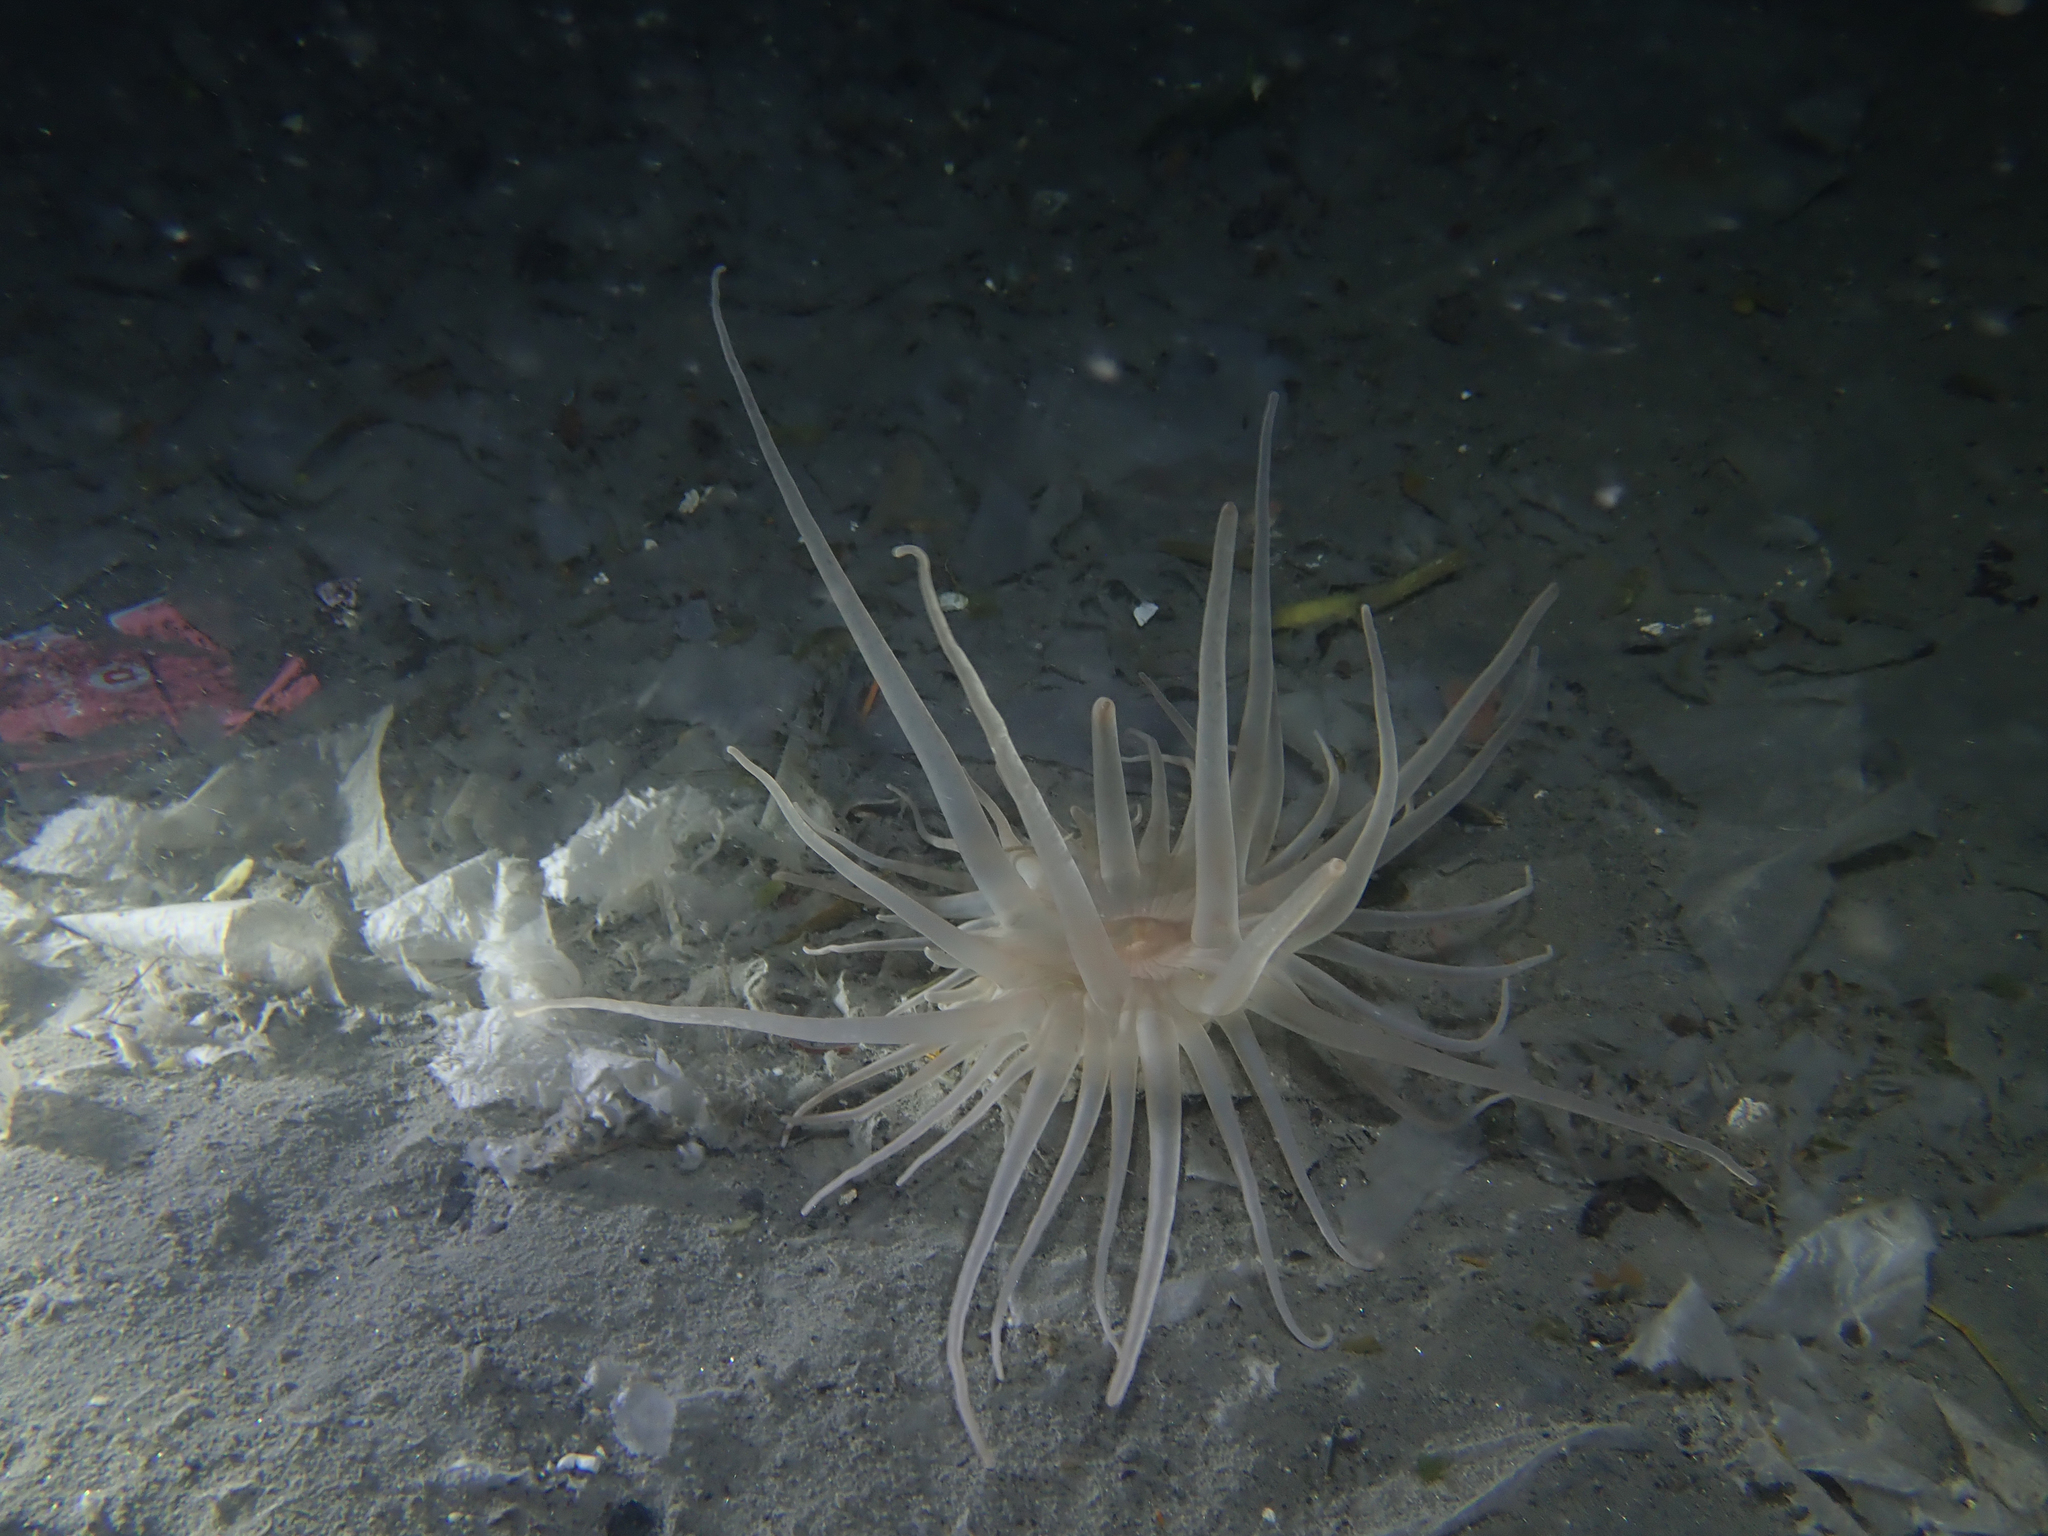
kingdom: Animalia
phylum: Cnidaria
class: Anthozoa
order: Actiniaria
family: Andresiidae
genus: Andresia
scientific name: Andresia partenopea
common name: Burrowing anemone
